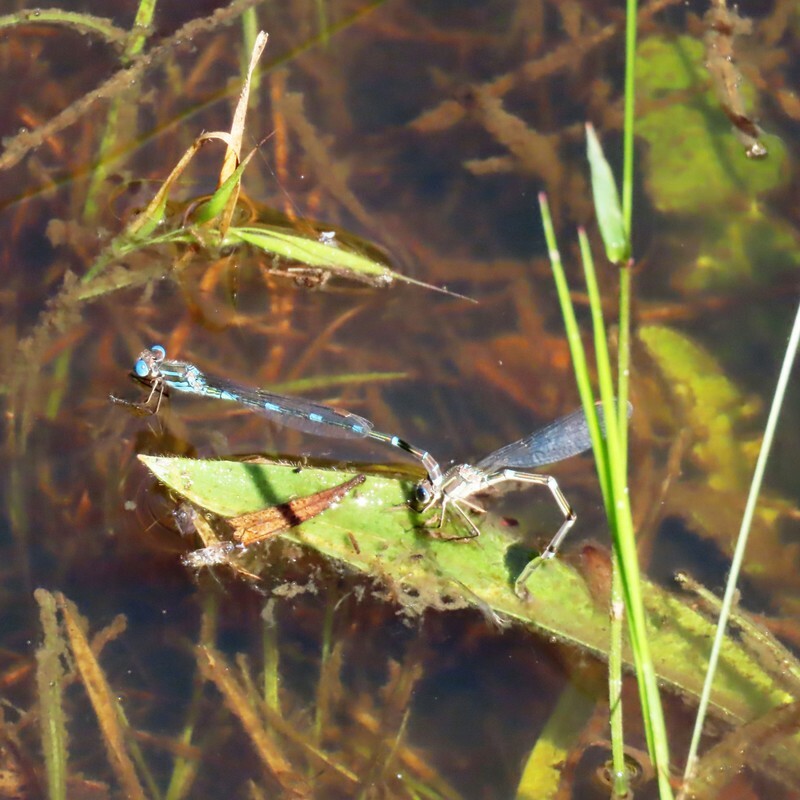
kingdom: Animalia
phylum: Arthropoda
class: Insecta
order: Odonata
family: Lestidae
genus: Austrolestes
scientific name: Austrolestes leda
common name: Wandering ringtail
